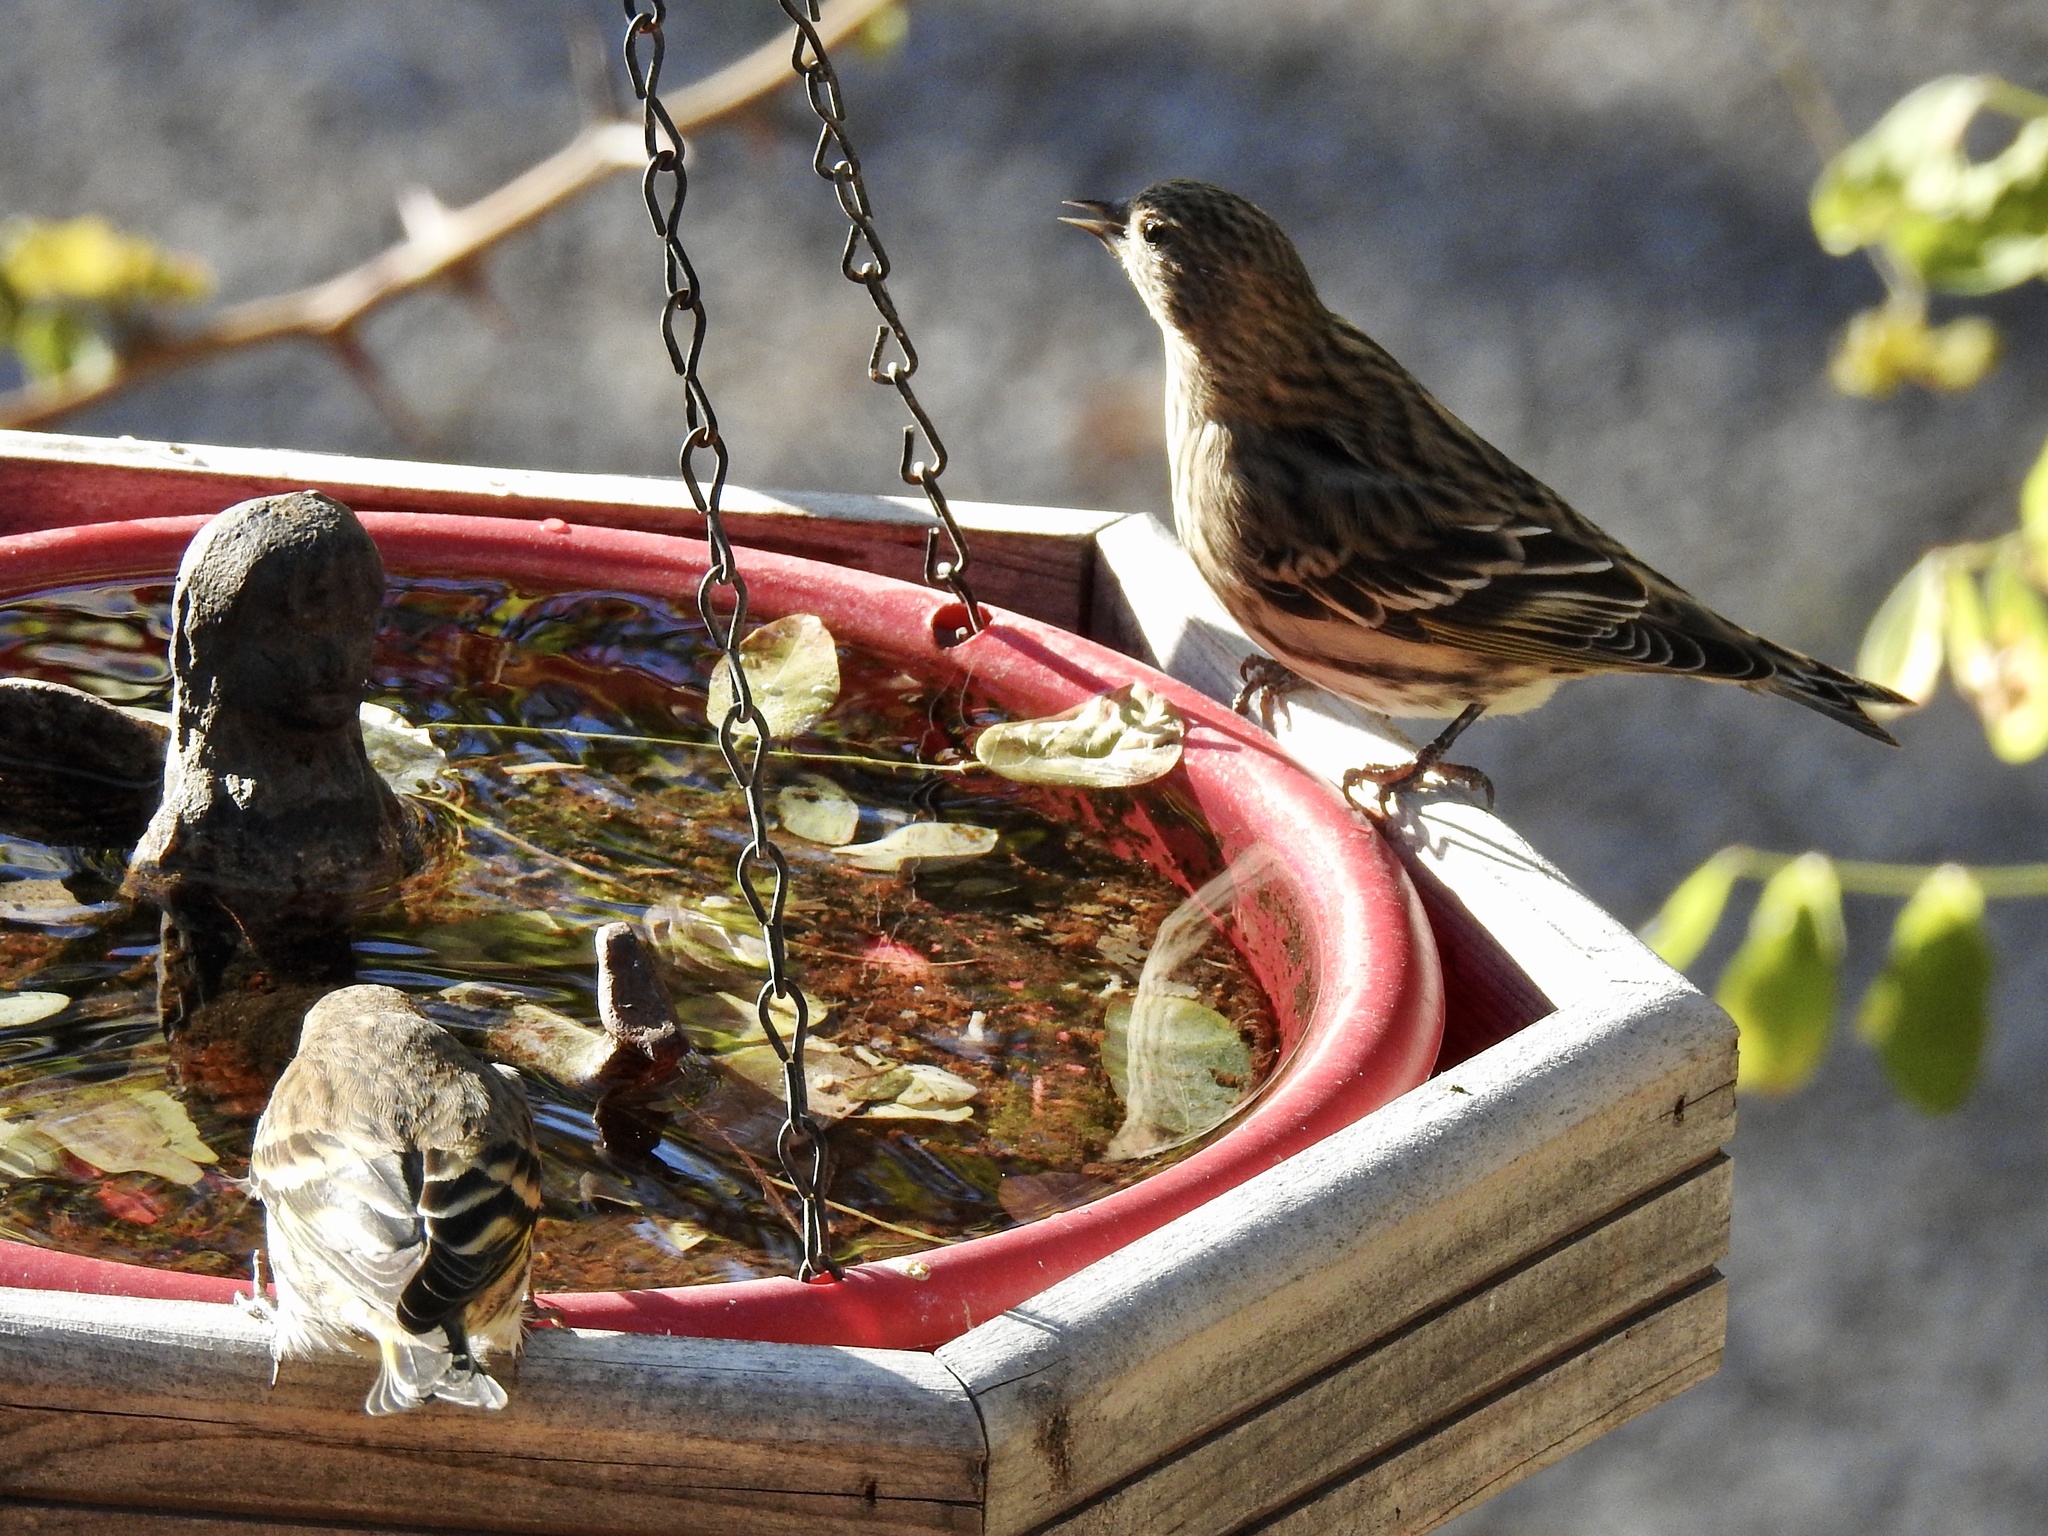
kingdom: Animalia
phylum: Chordata
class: Aves
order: Passeriformes
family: Fringillidae
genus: Spinus
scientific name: Spinus pinus
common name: Pine siskin
